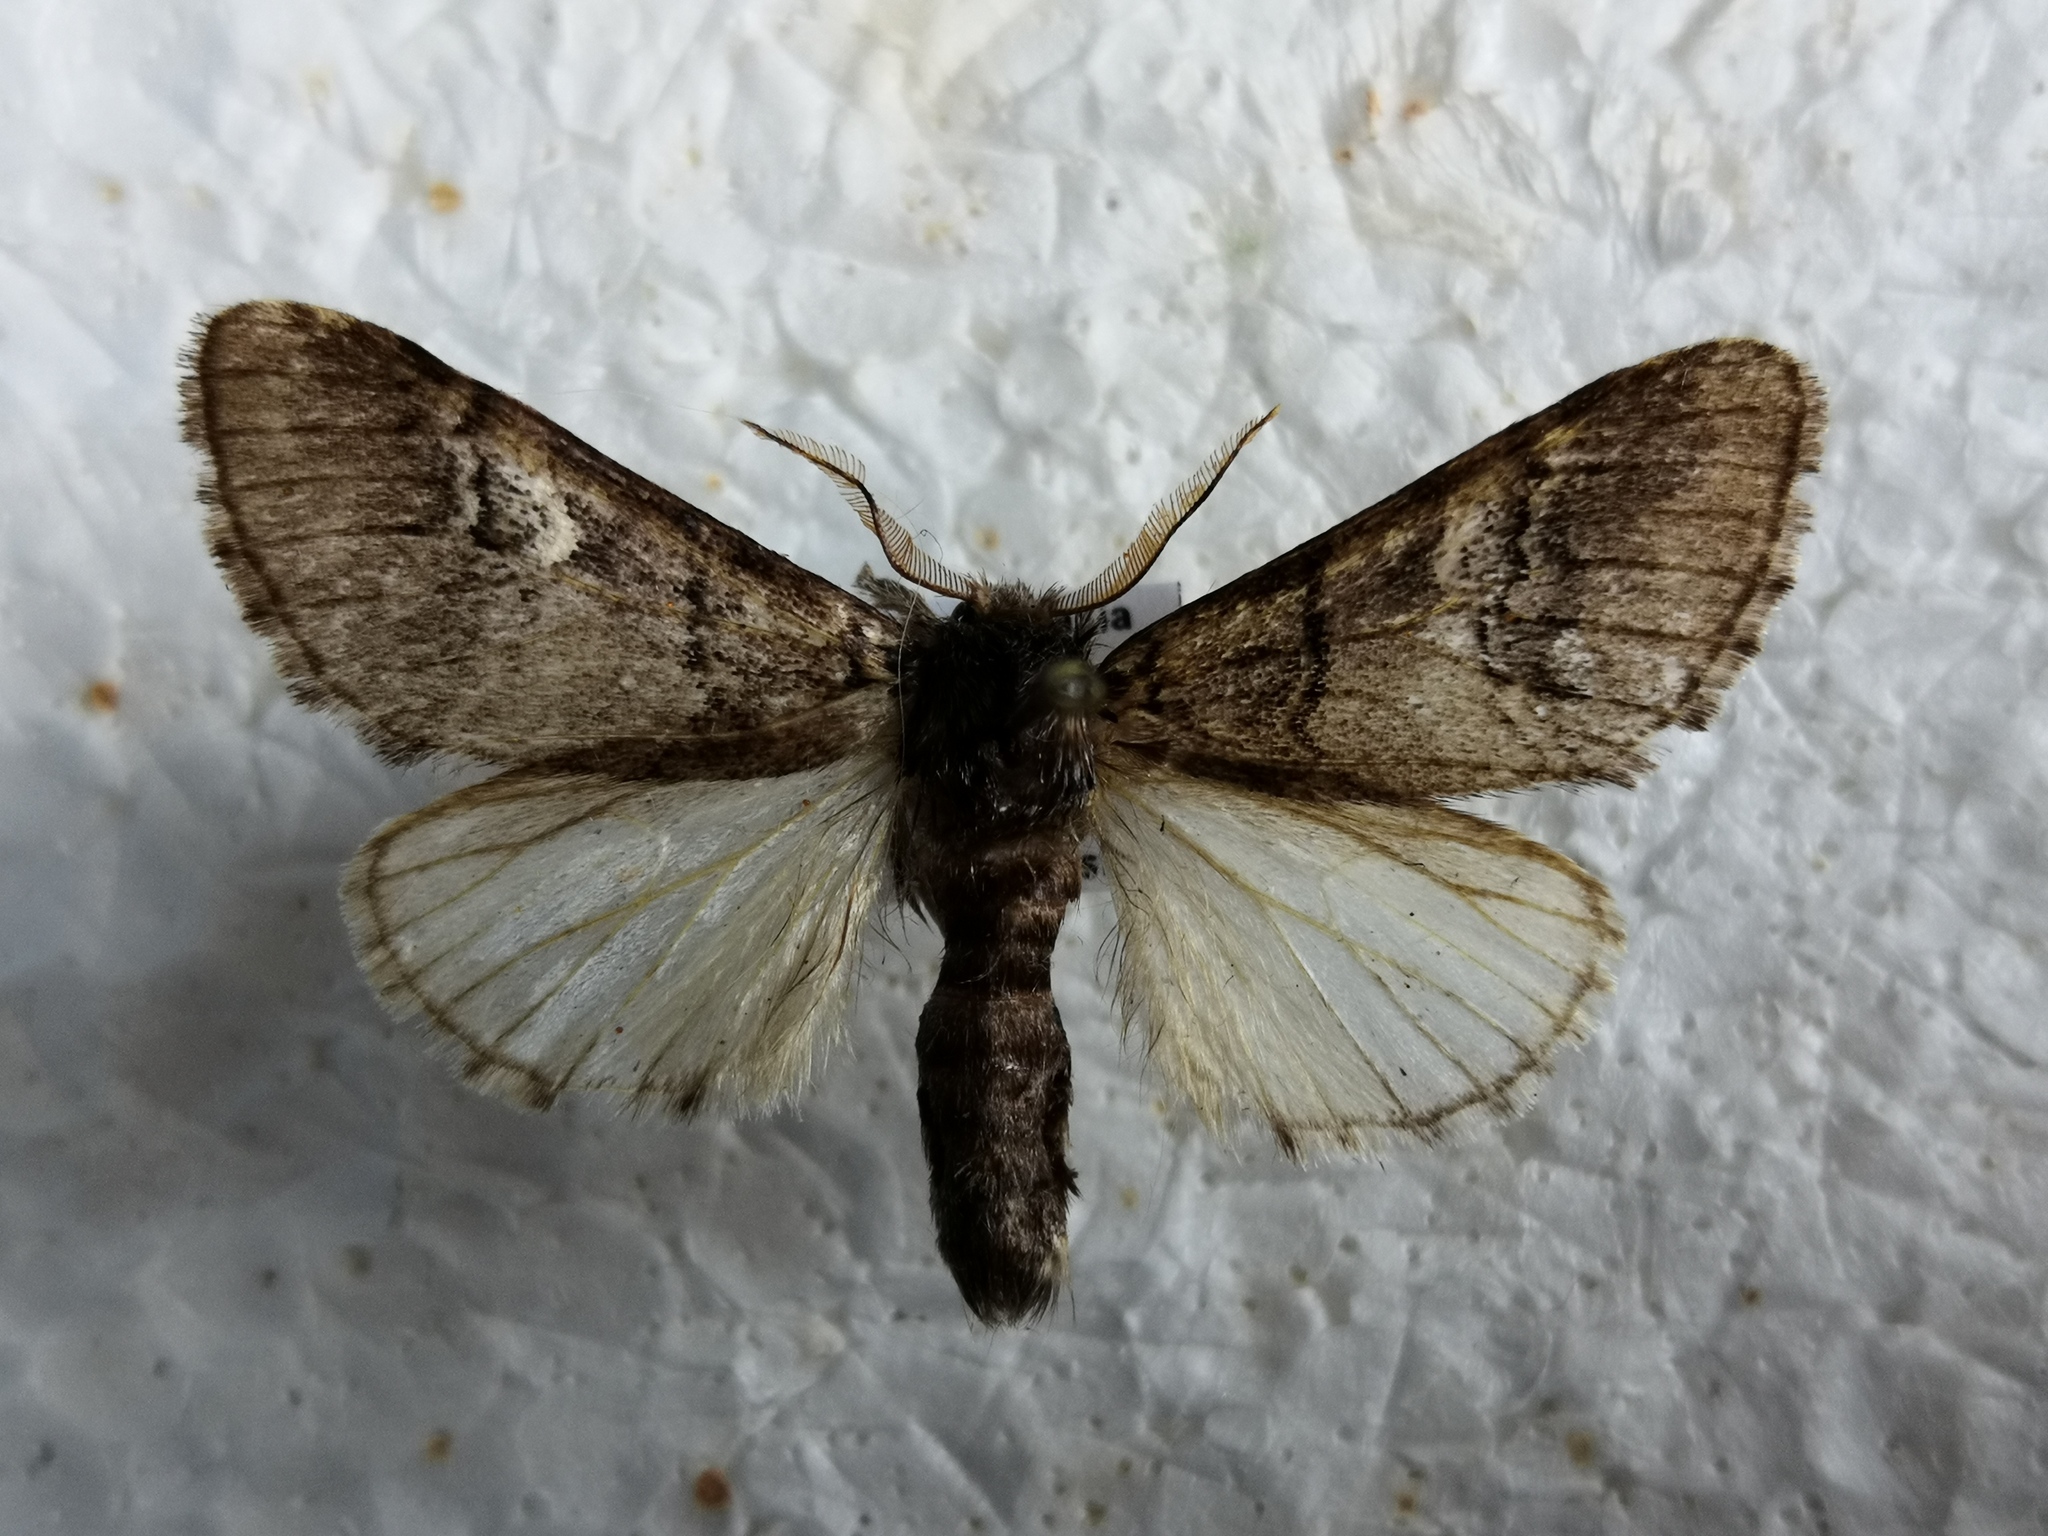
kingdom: Animalia
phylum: Arthropoda
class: Insecta
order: Lepidoptera
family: Notodontidae
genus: Drymonia
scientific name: Drymonia querna
